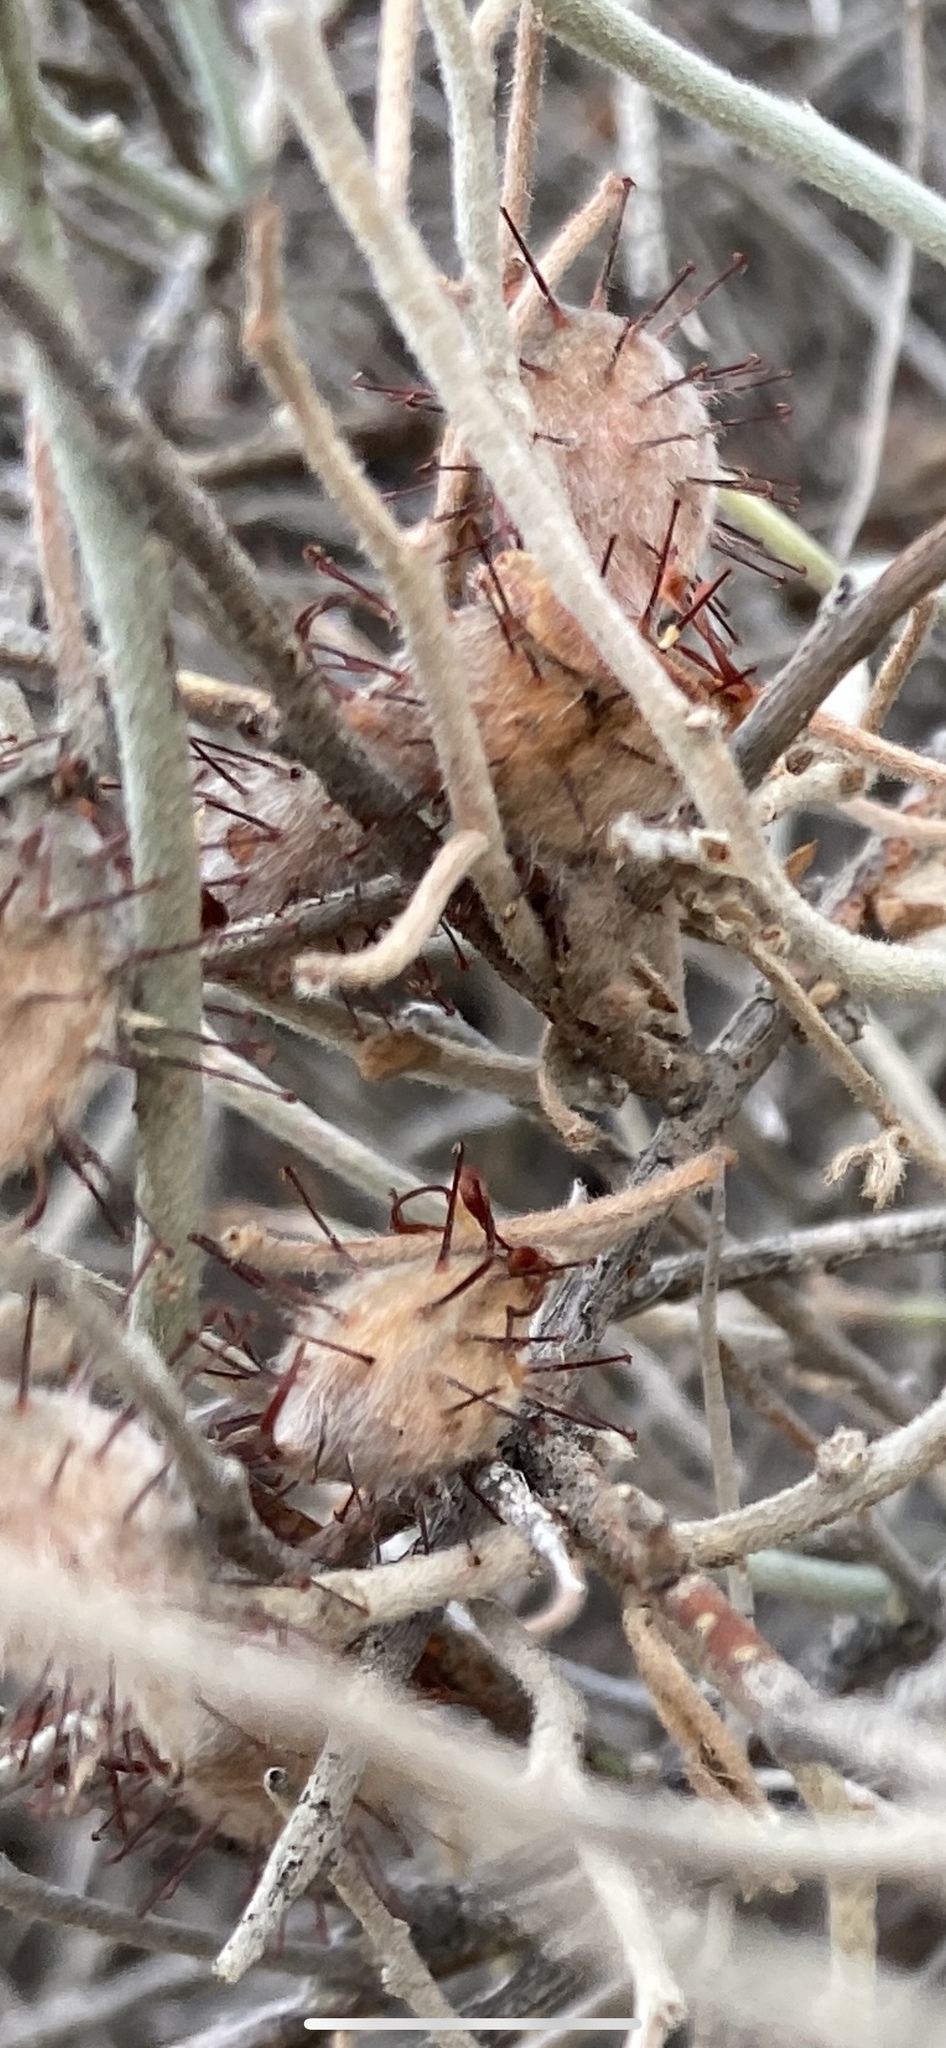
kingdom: Plantae
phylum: Tracheophyta
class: Magnoliopsida
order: Zygophyllales
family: Krameriaceae
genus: Krameria
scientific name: Krameria bicolor
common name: White ratany
